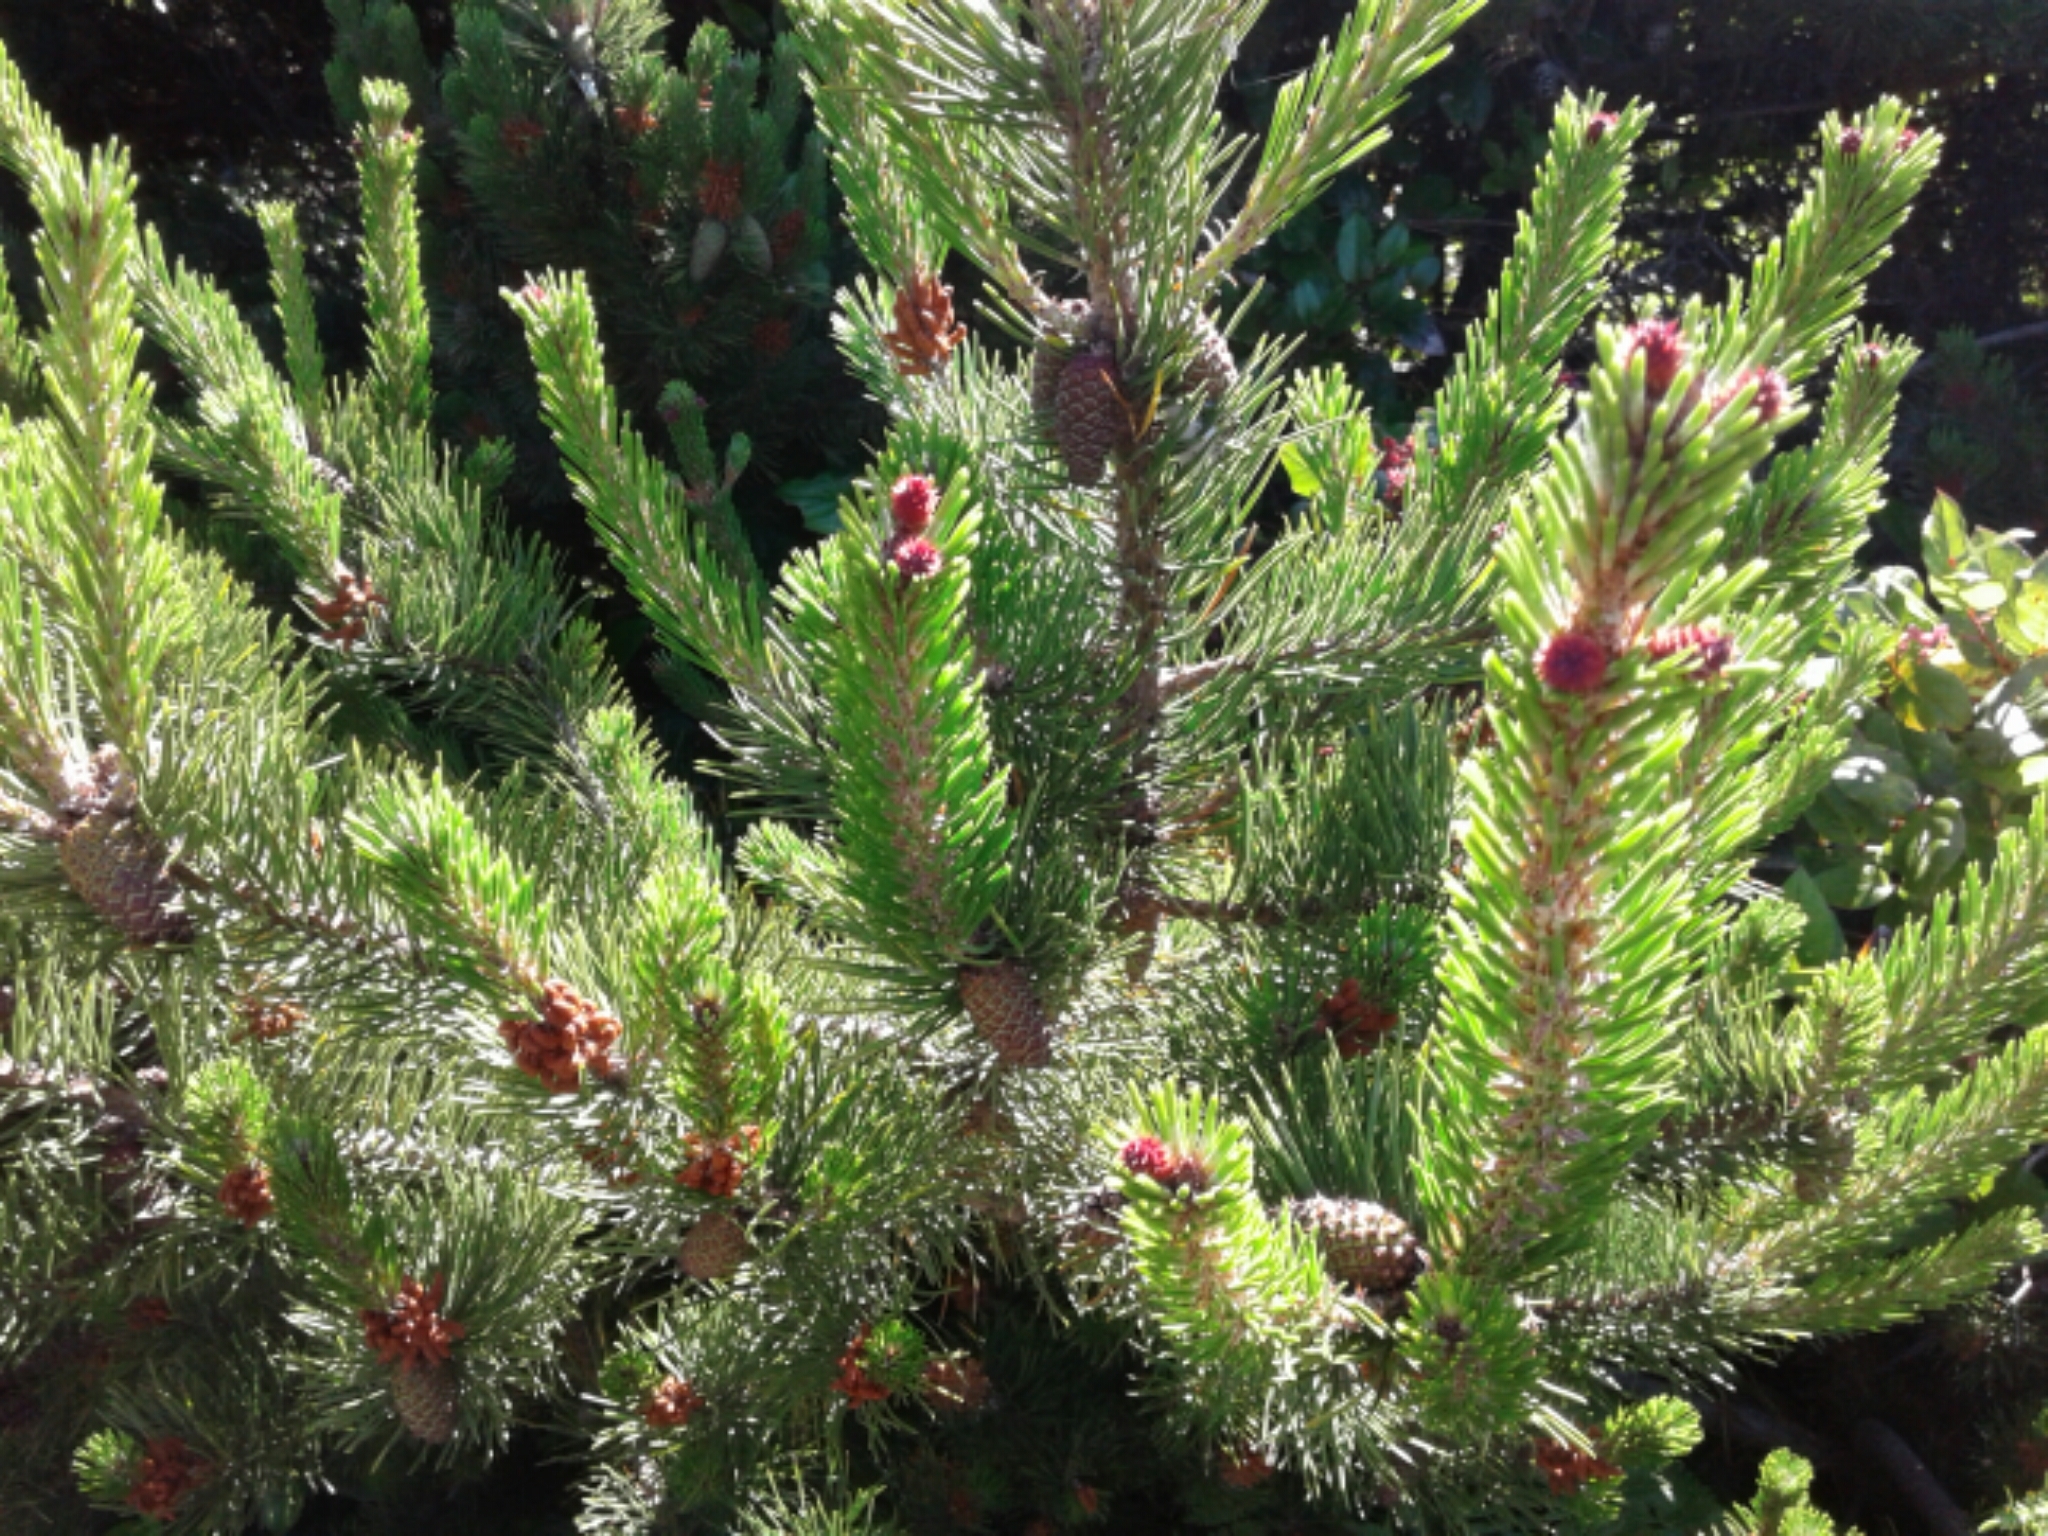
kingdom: Plantae
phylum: Tracheophyta
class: Pinopsida
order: Pinales
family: Pinaceae
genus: Pinus
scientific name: Pinus contorta
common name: Lodgepole pine
